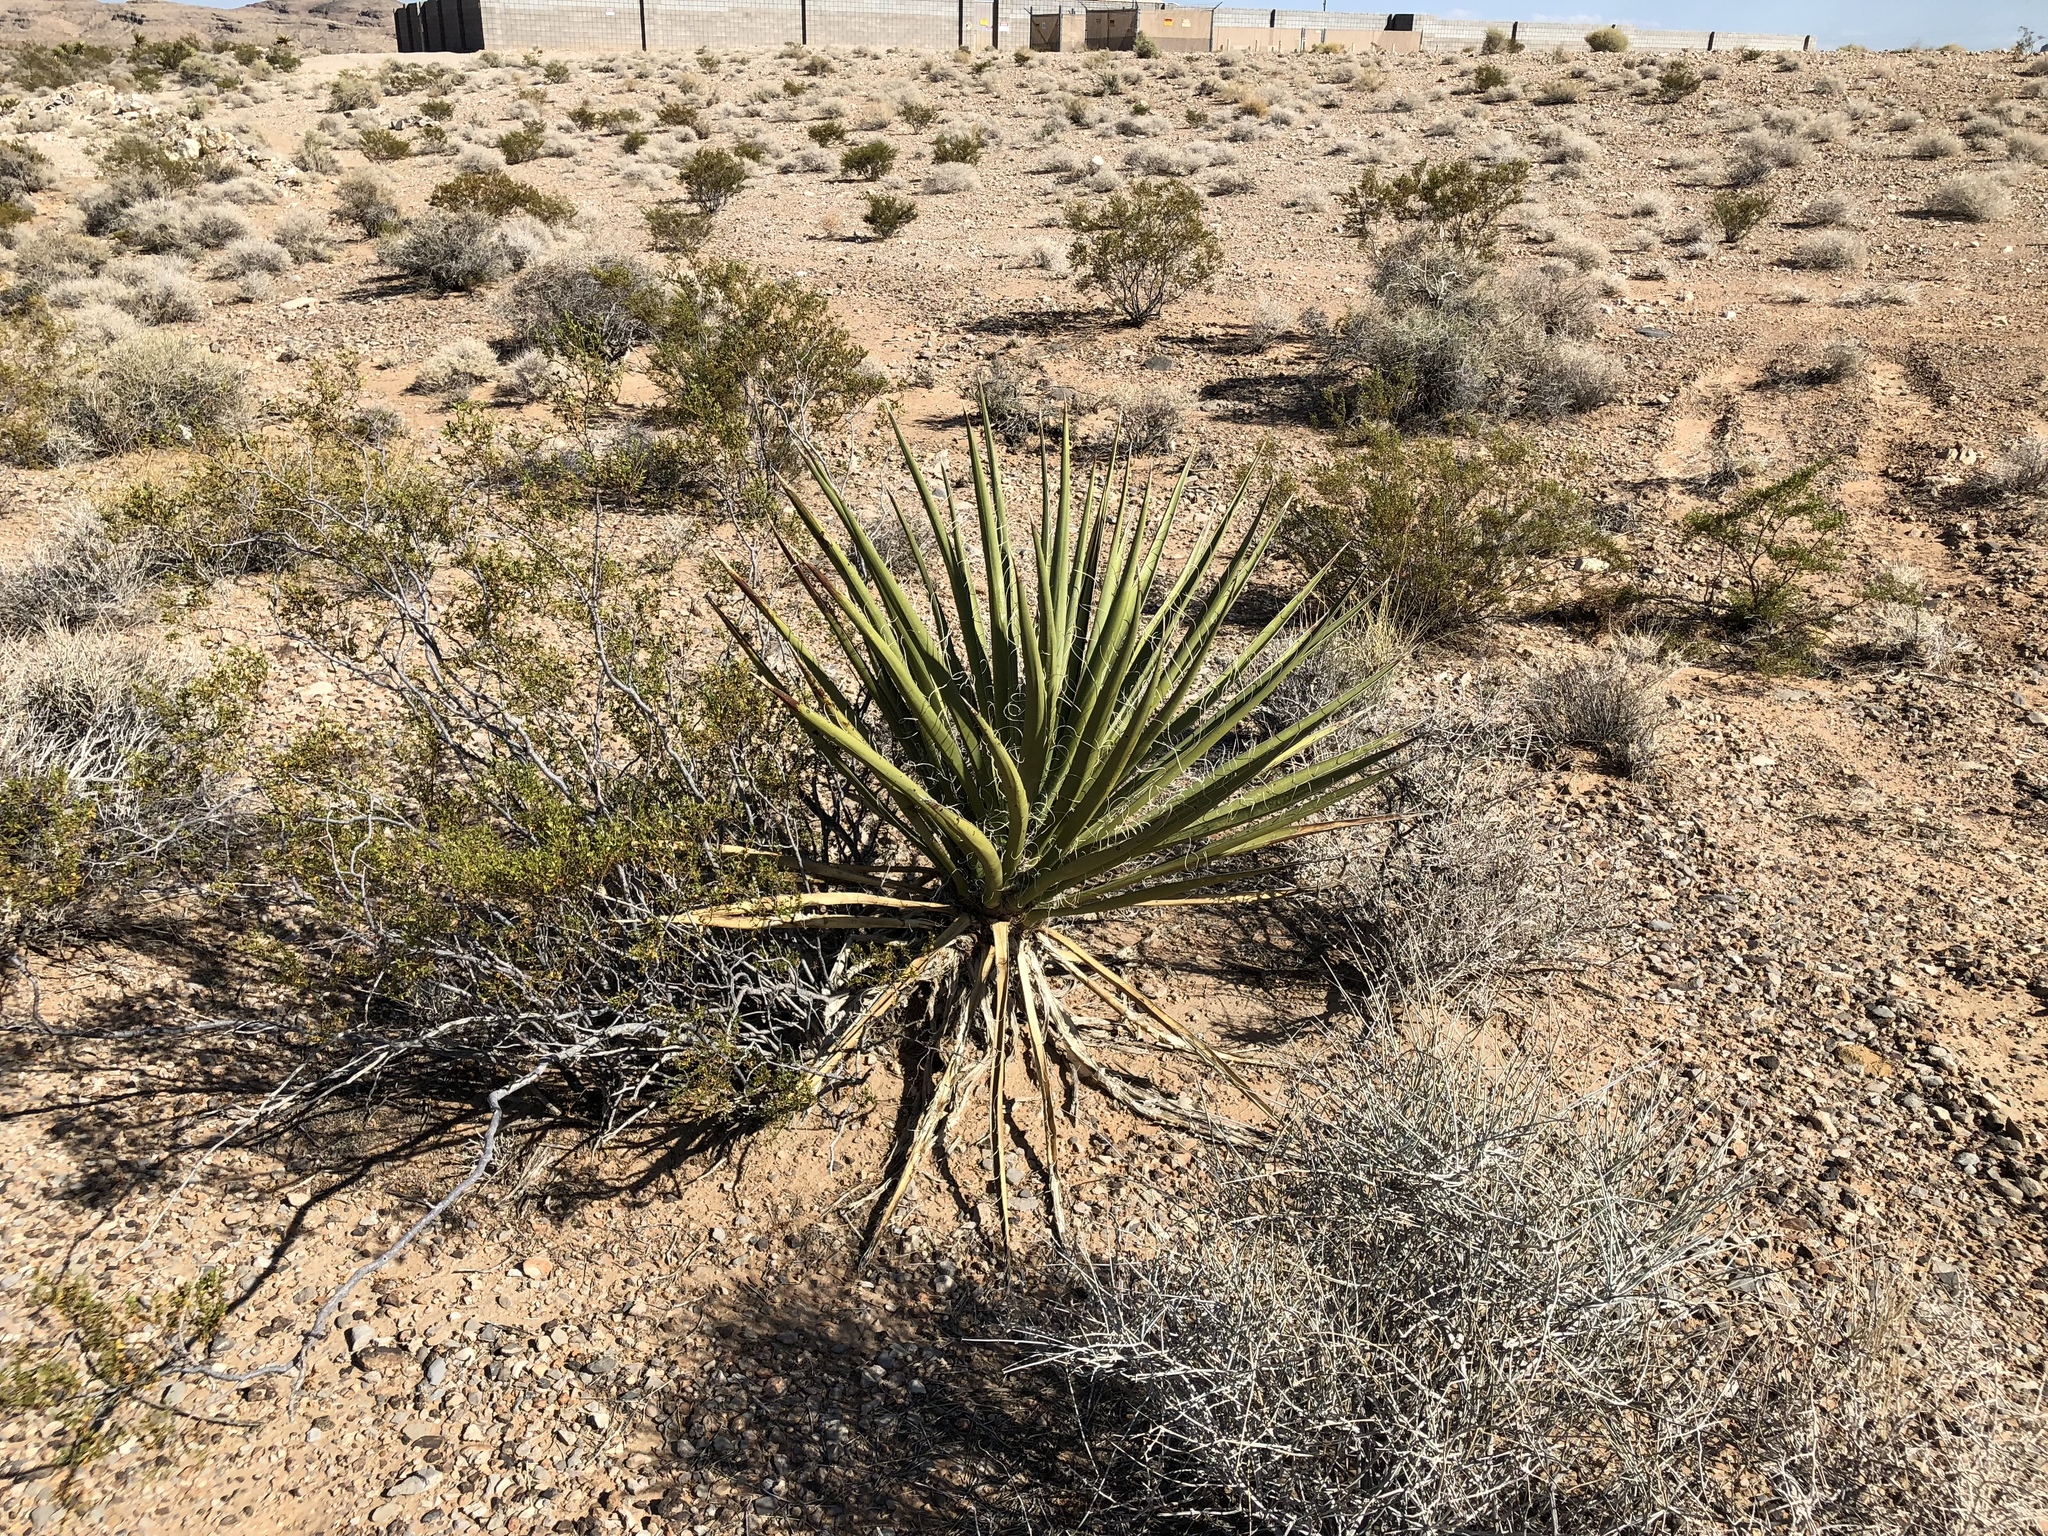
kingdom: Plantae
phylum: Tracheophyta
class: Liliopsida
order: Asparagales
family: Asparagaceae
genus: Yucca
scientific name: Yucca schidigera
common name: Mojave yucca
